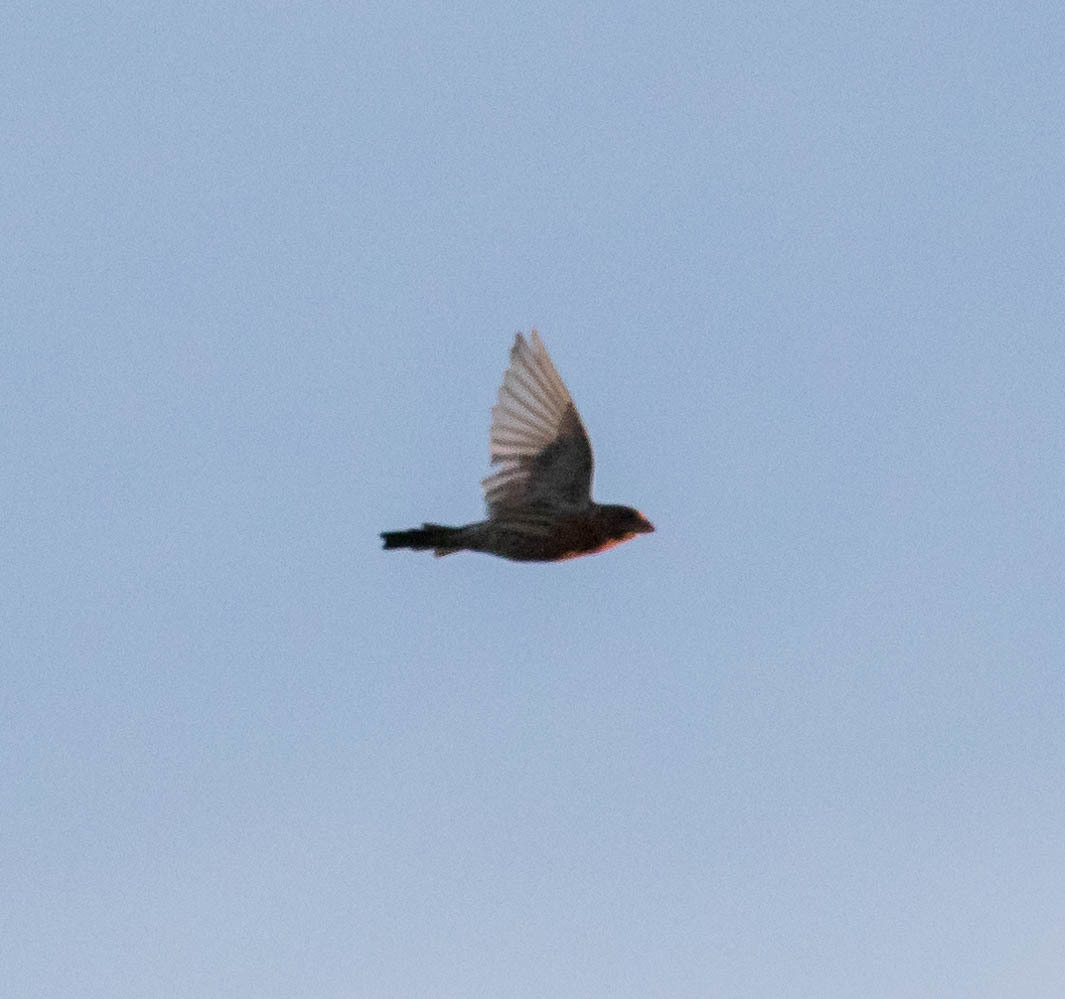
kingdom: Animalia
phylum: Chordata
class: Aves
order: Passeriformes
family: Fringillidae
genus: Haemorhous
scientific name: Haemorhous mexicanus
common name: House finch
